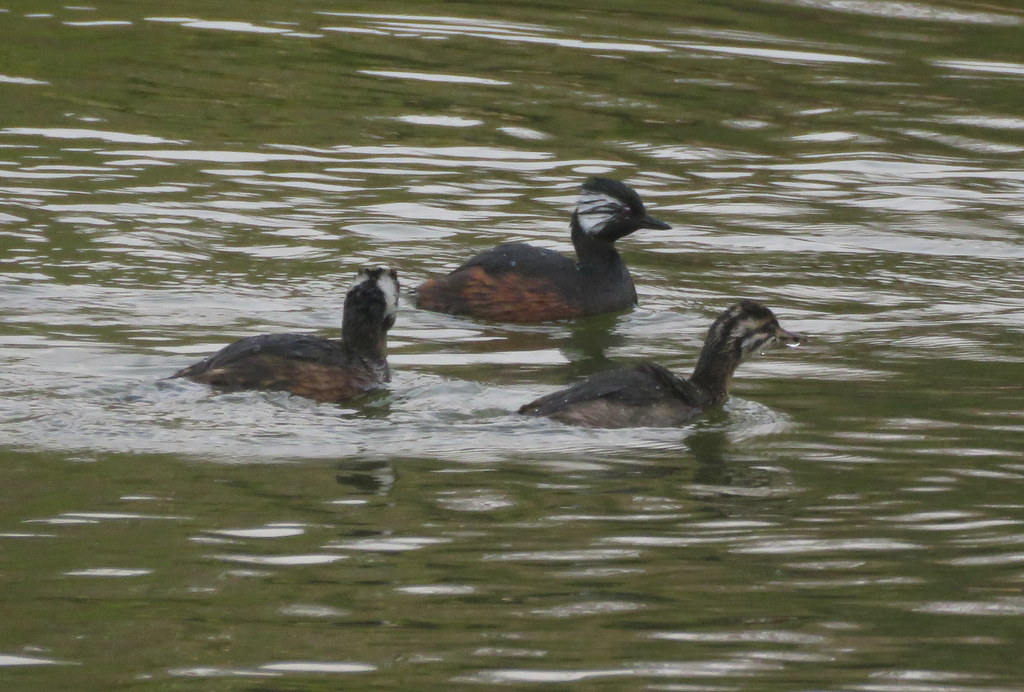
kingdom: Animalia
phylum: Chordata
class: Aves
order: Podicipediformes
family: Podicipedidae
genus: Rollandia
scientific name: Rollandia rolland
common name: White-tufted grebe
